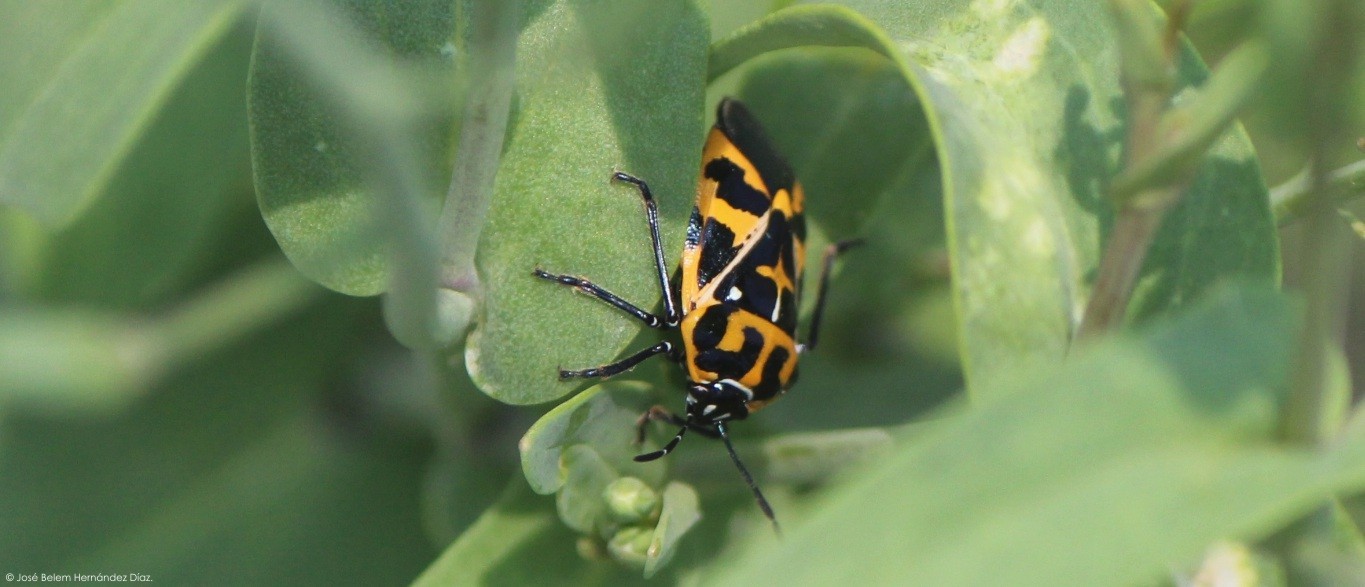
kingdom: Animalia
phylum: Arthropoda
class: Insecta
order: Hemiptera
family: Pentatomidae
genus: Murgantia
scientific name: Murgantia histrionica
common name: Harlequin bug
